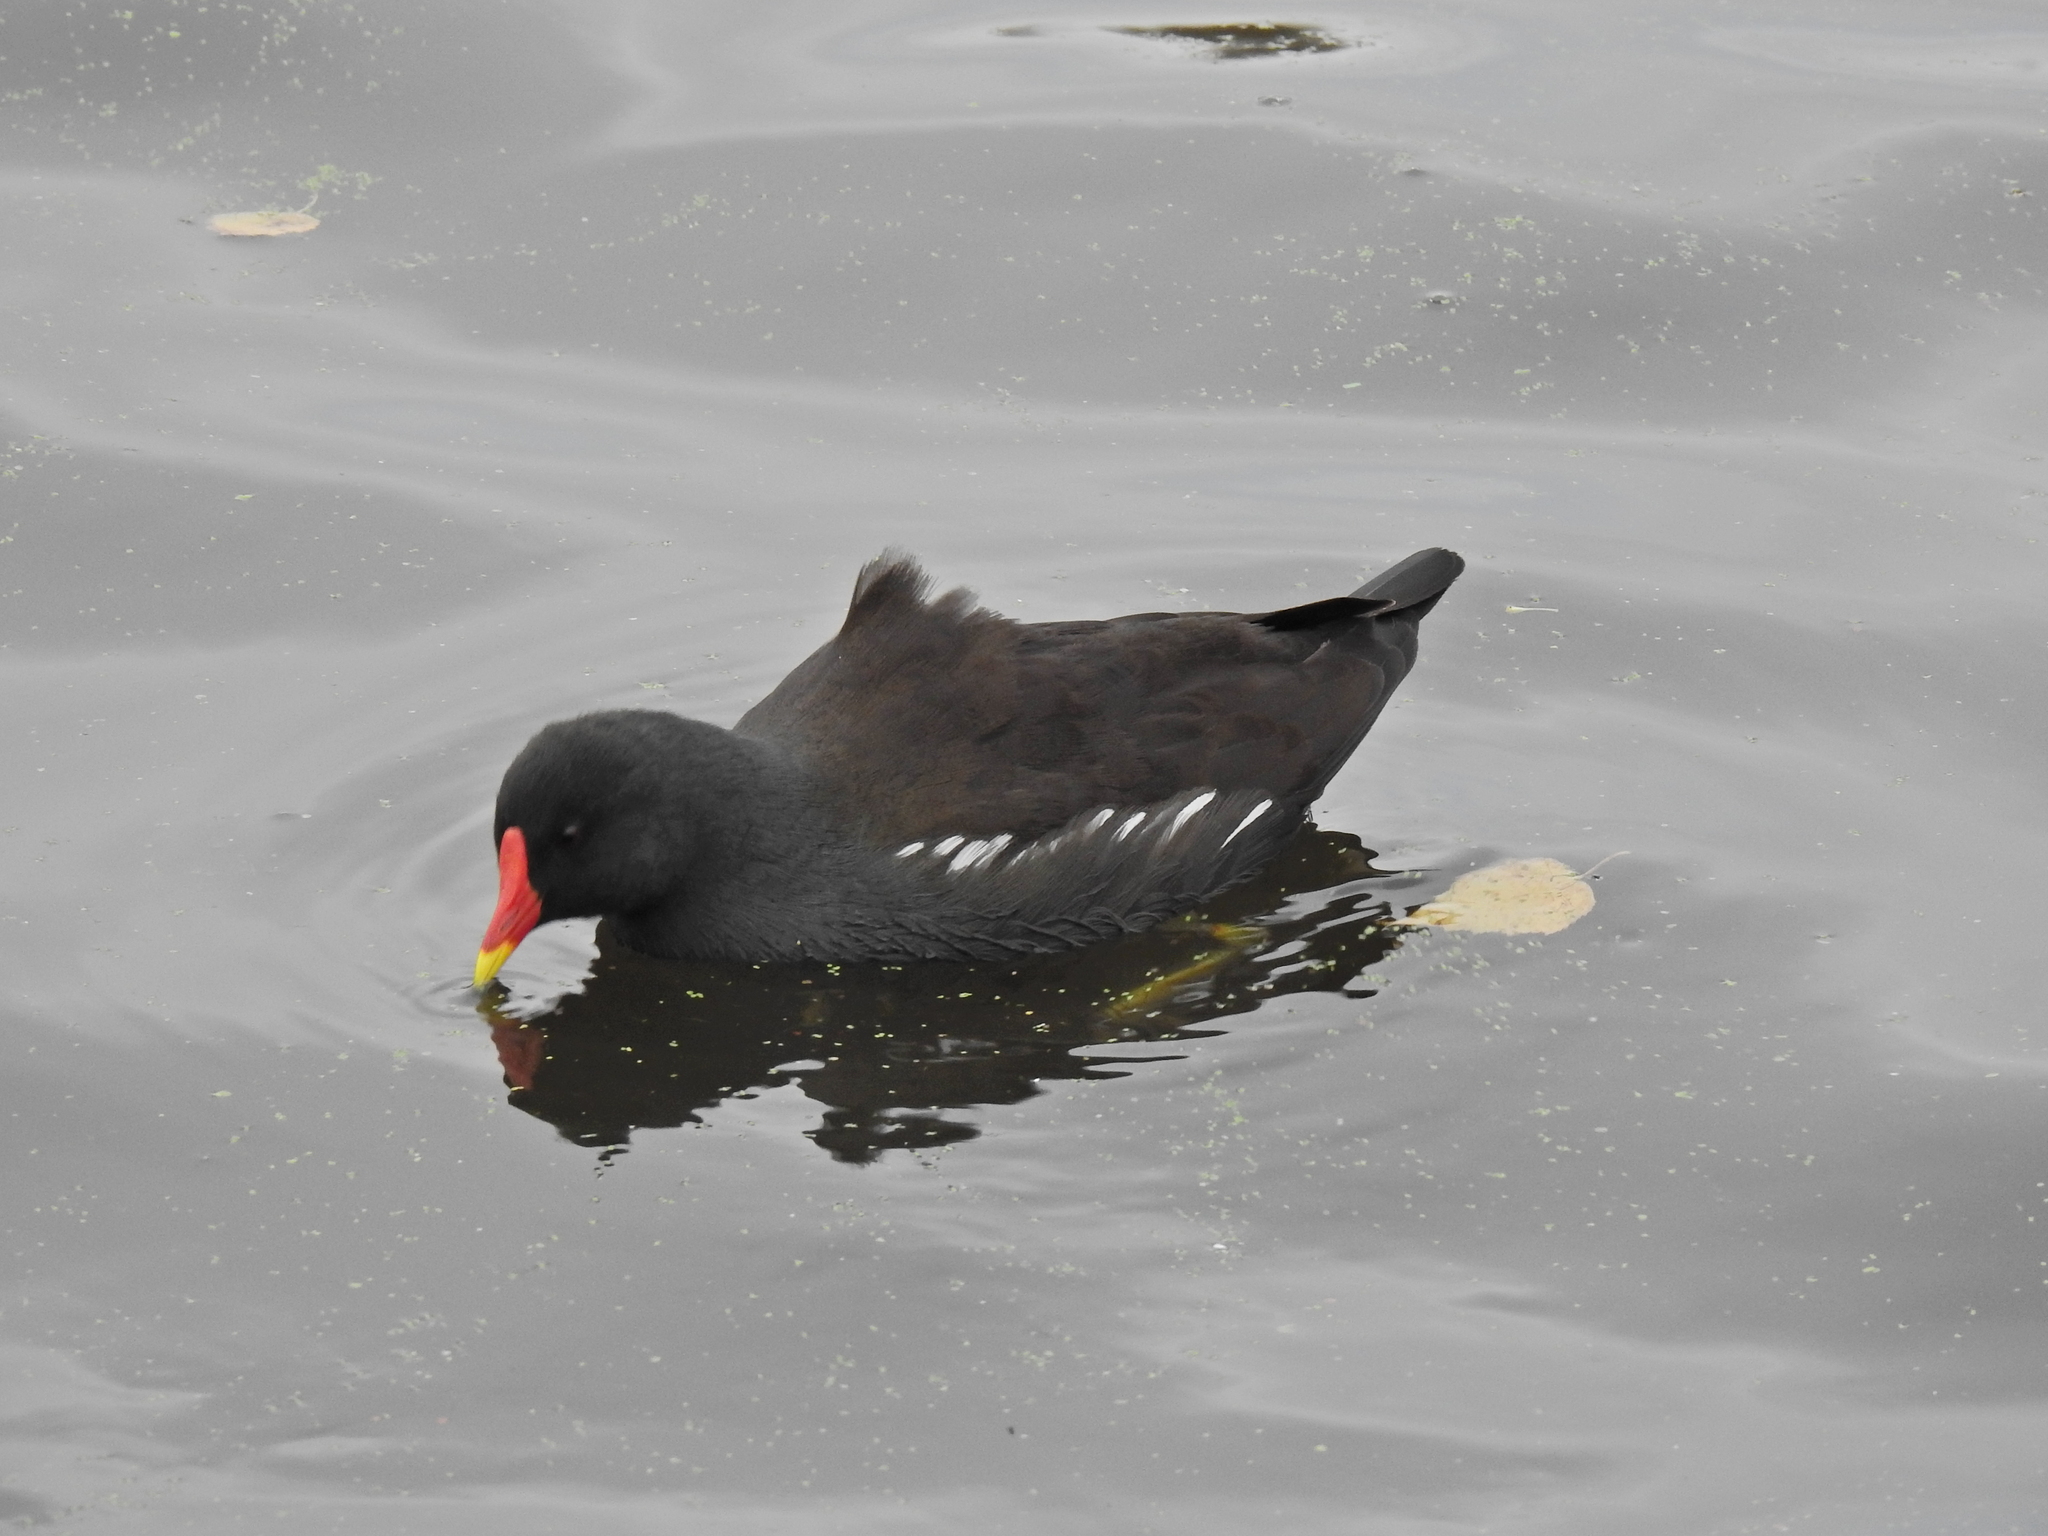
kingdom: Animalia
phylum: Chordata
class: Aves
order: Gruiformes
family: Rallidae
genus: Gallinula
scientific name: Gallinula chloropus
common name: Common moorhen
